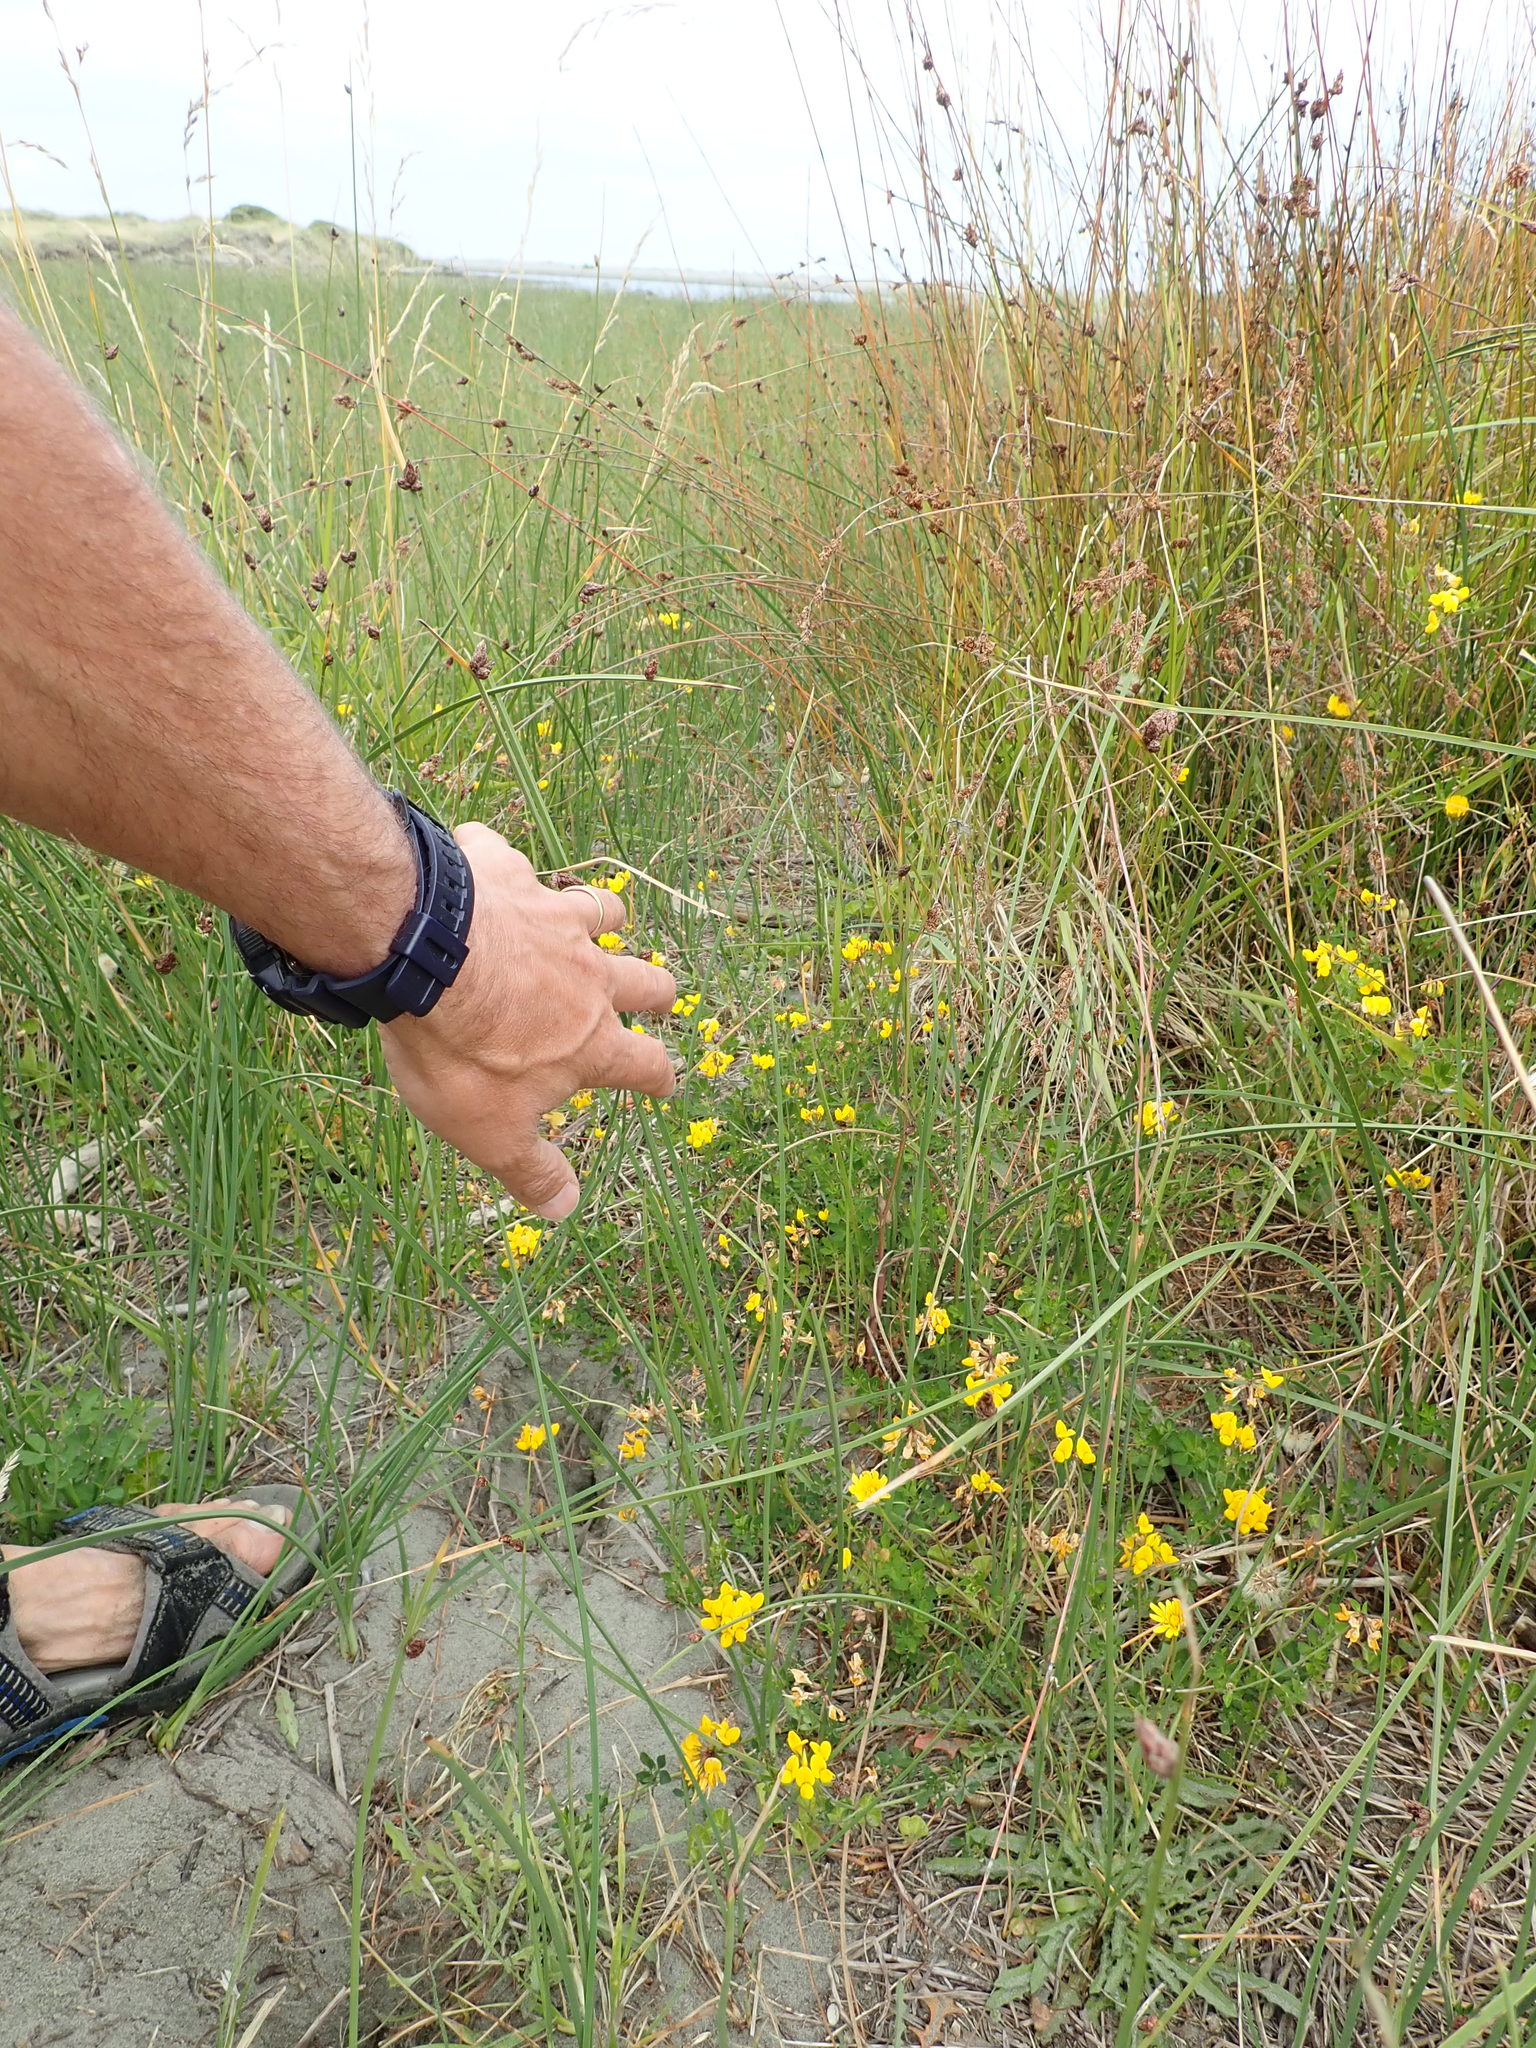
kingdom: Plantae
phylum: Tracheophyta
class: Magnoliopsida
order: Fabales
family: Fabaceae
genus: Lotus
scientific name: Lotus pedunculatus
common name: Greater birdsfoot-trefoil
